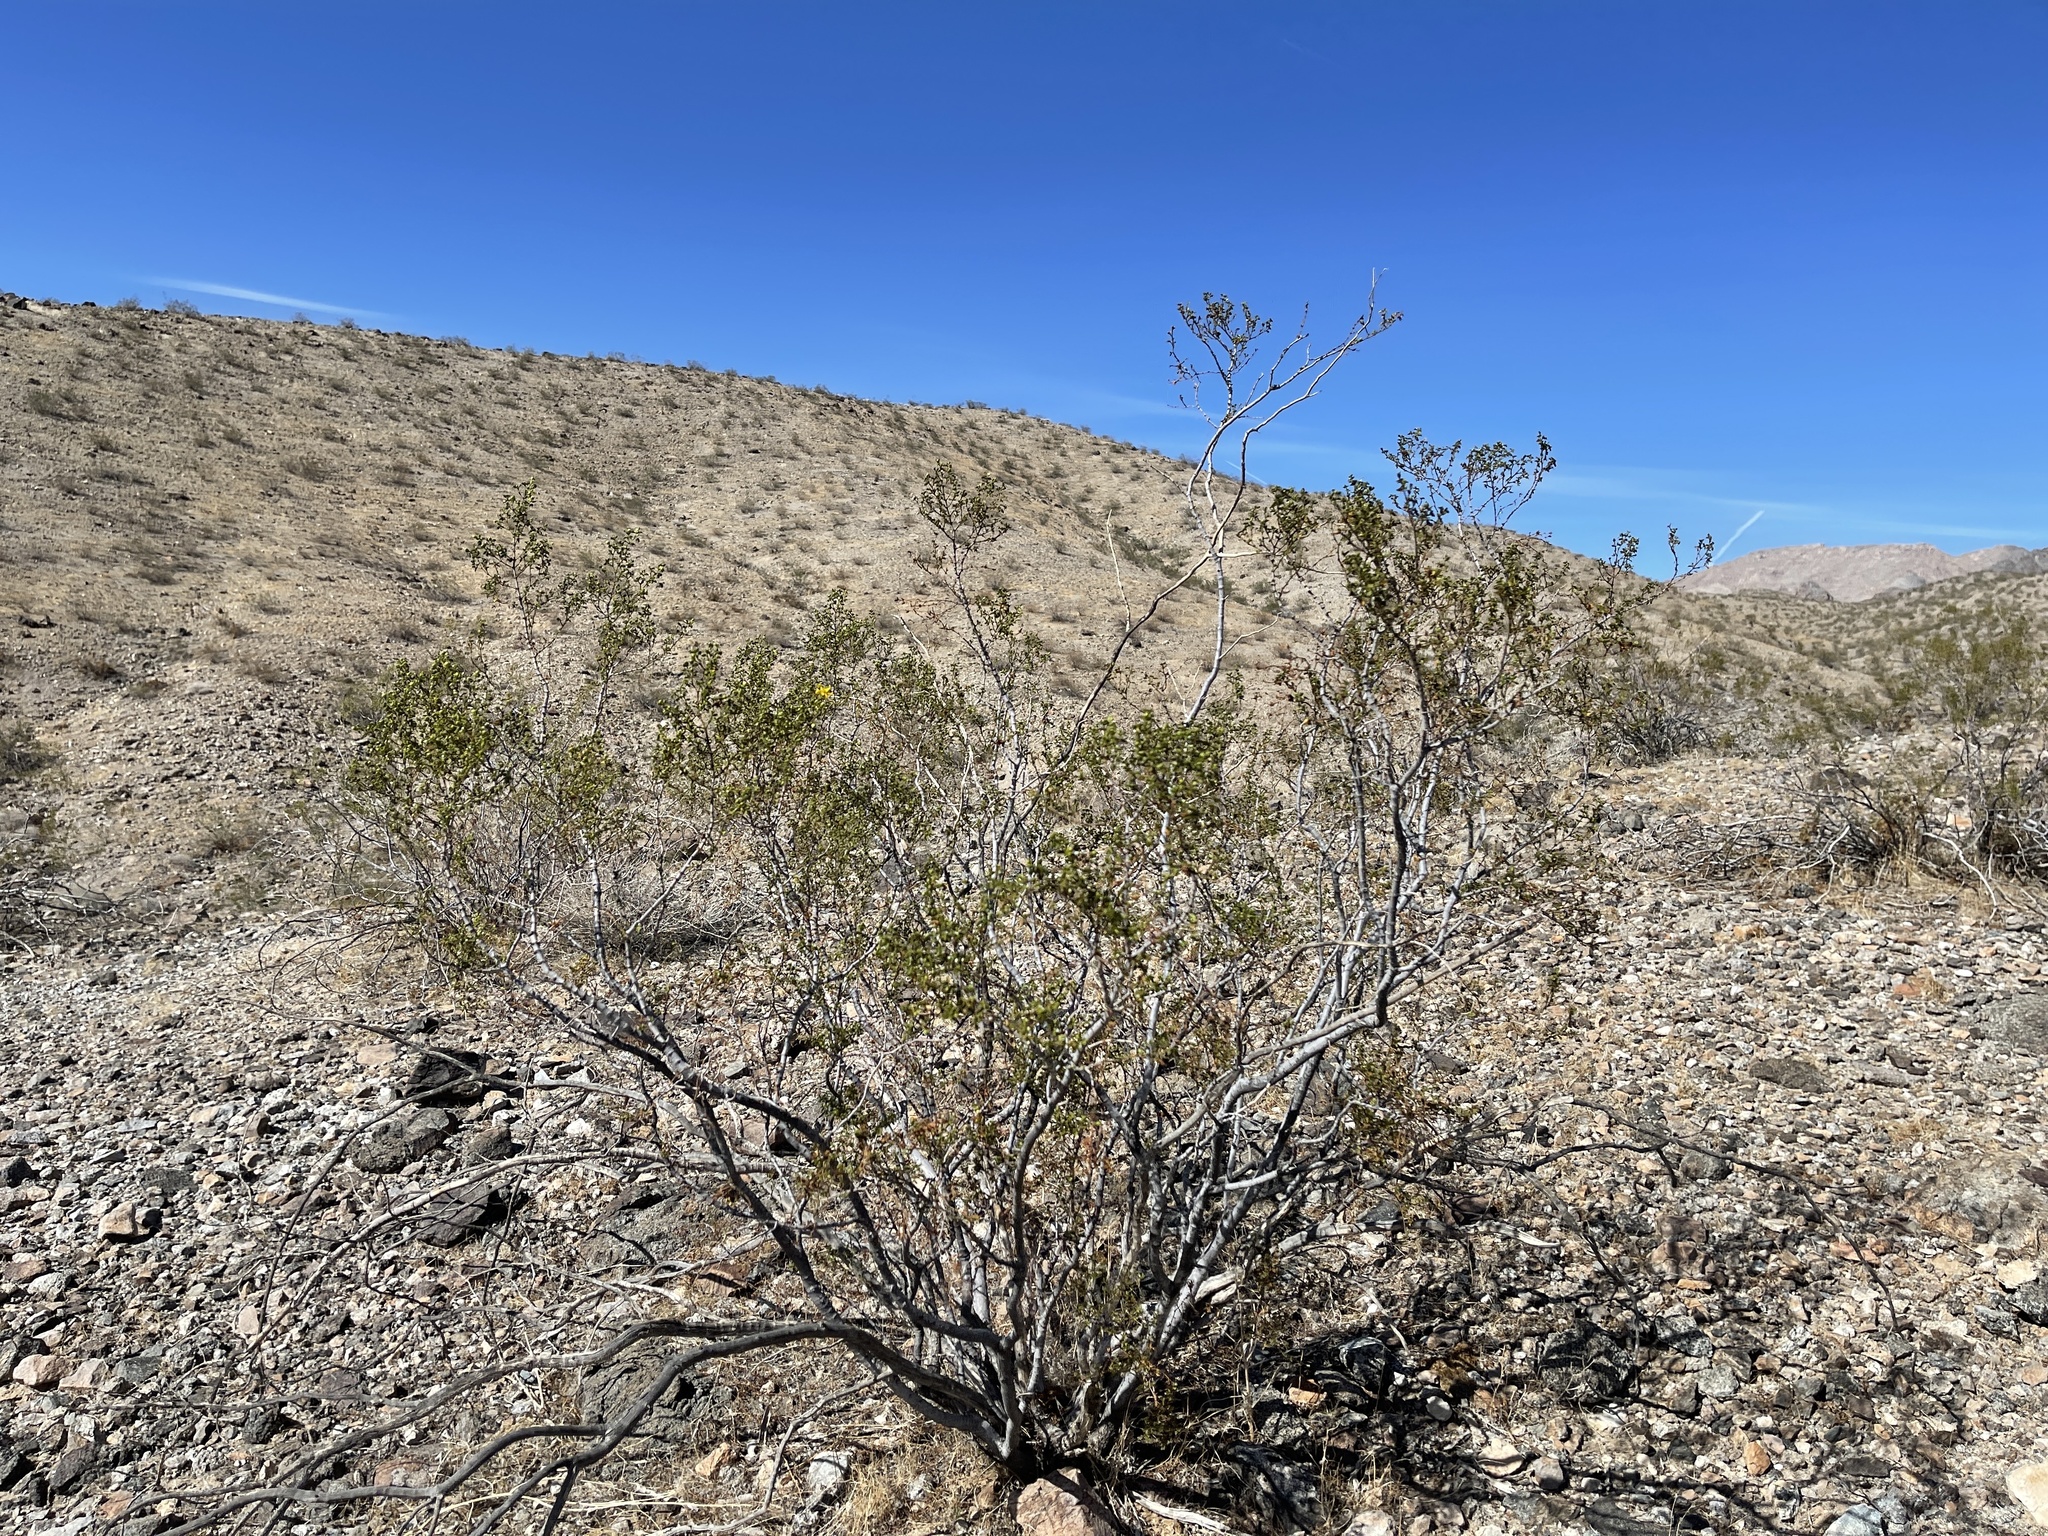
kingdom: Plantae
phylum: Tracheophyta
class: Magnoliopsida
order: Zygophyllales
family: Zygophyllaceae
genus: Larrea
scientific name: Larrea tridentata
